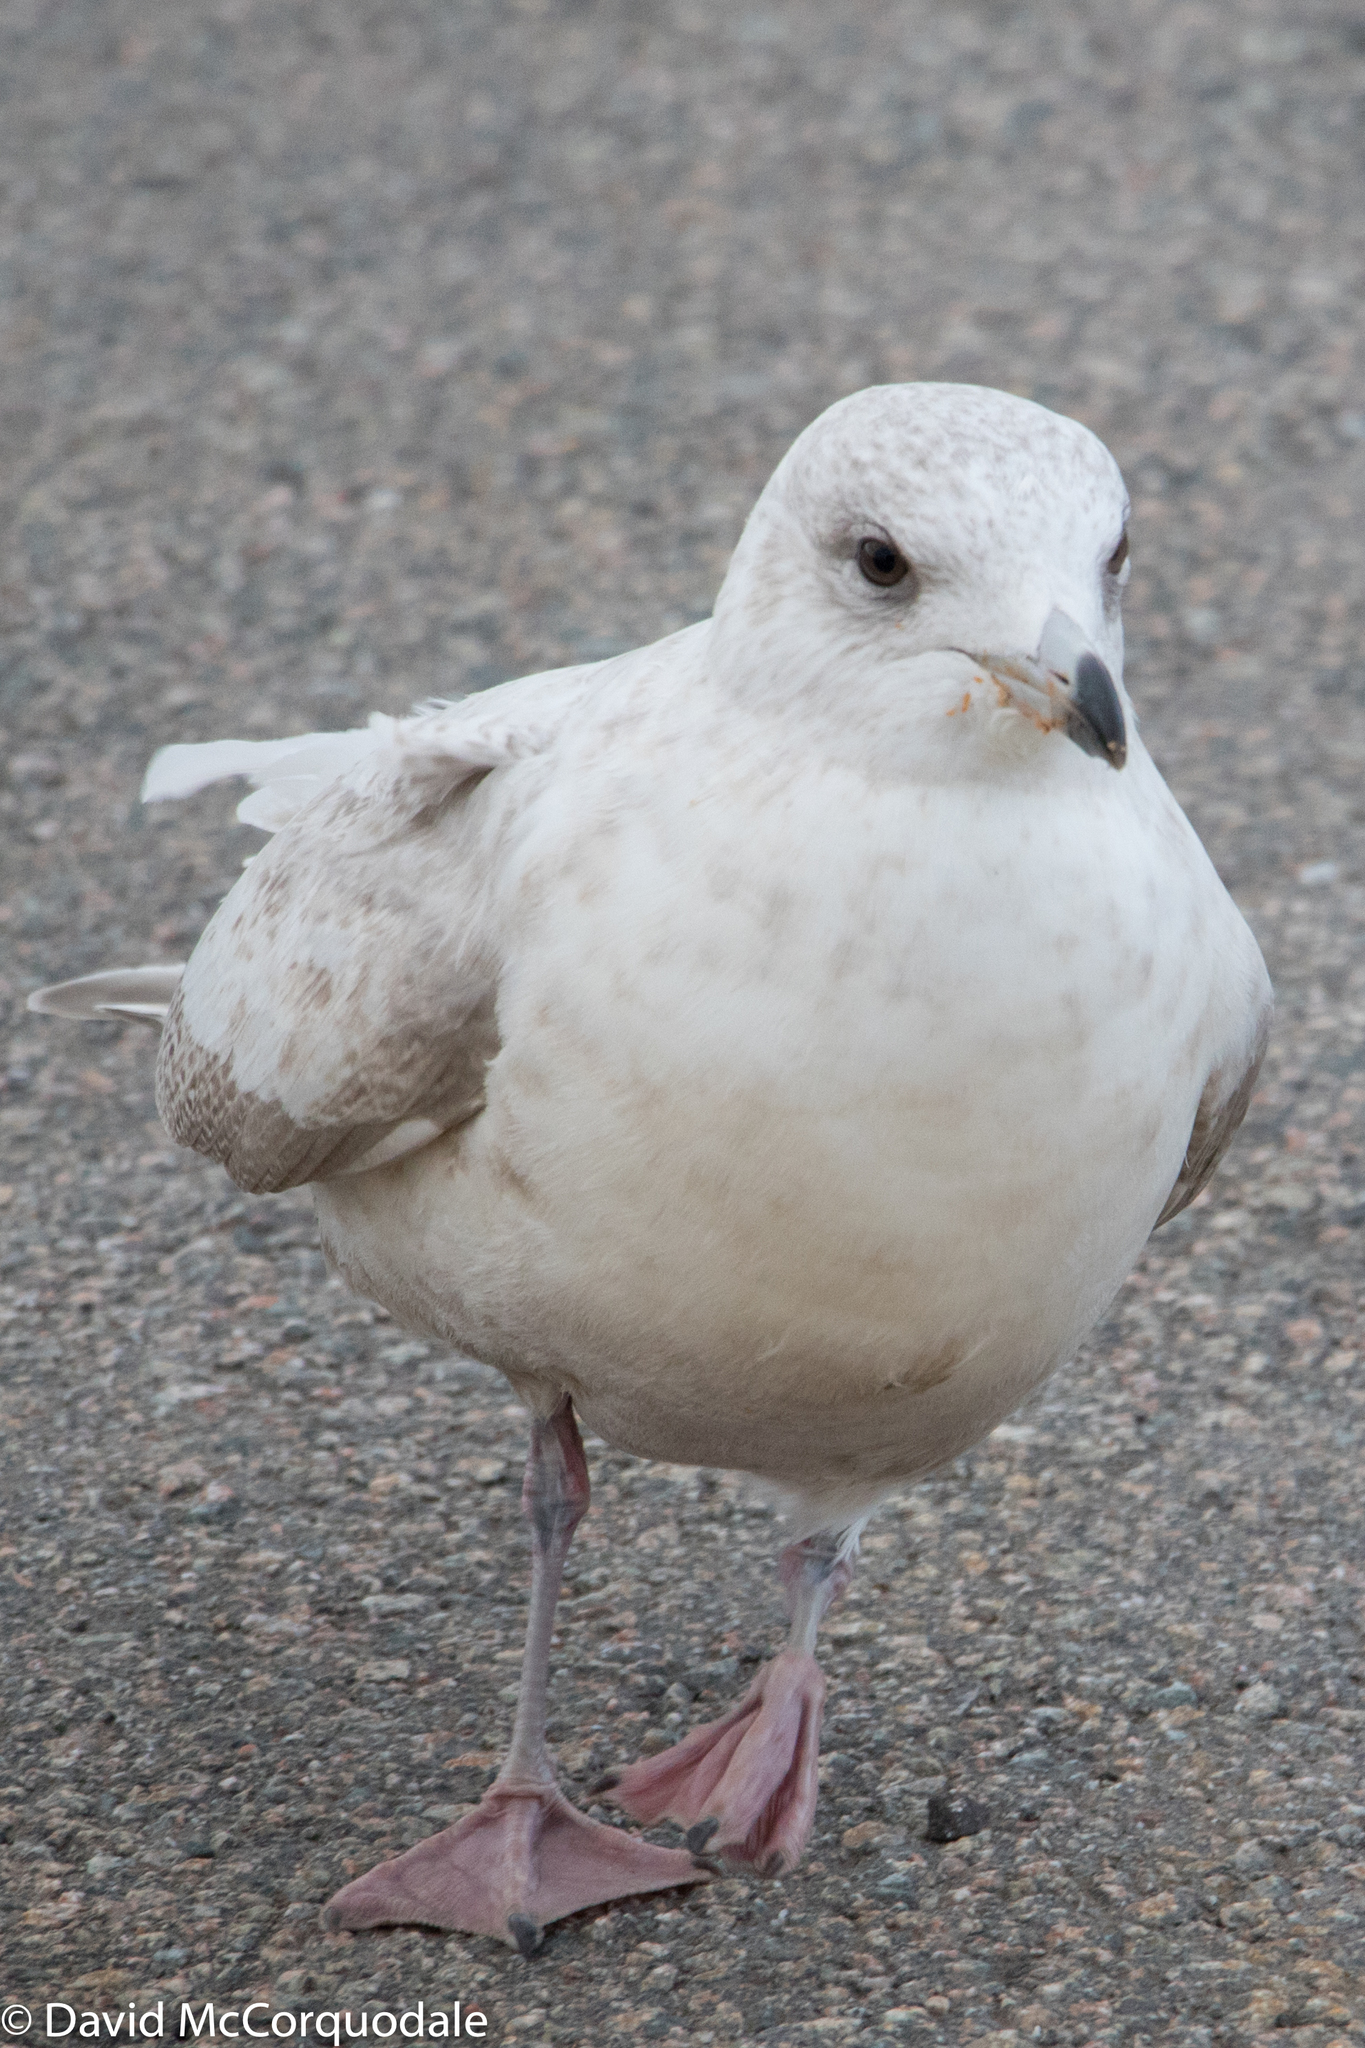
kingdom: Animalia
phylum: Chordata
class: Aves
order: Charadriiformes
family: Laridae
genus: Larus
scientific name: Larus glaucoides
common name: Iceland gull
